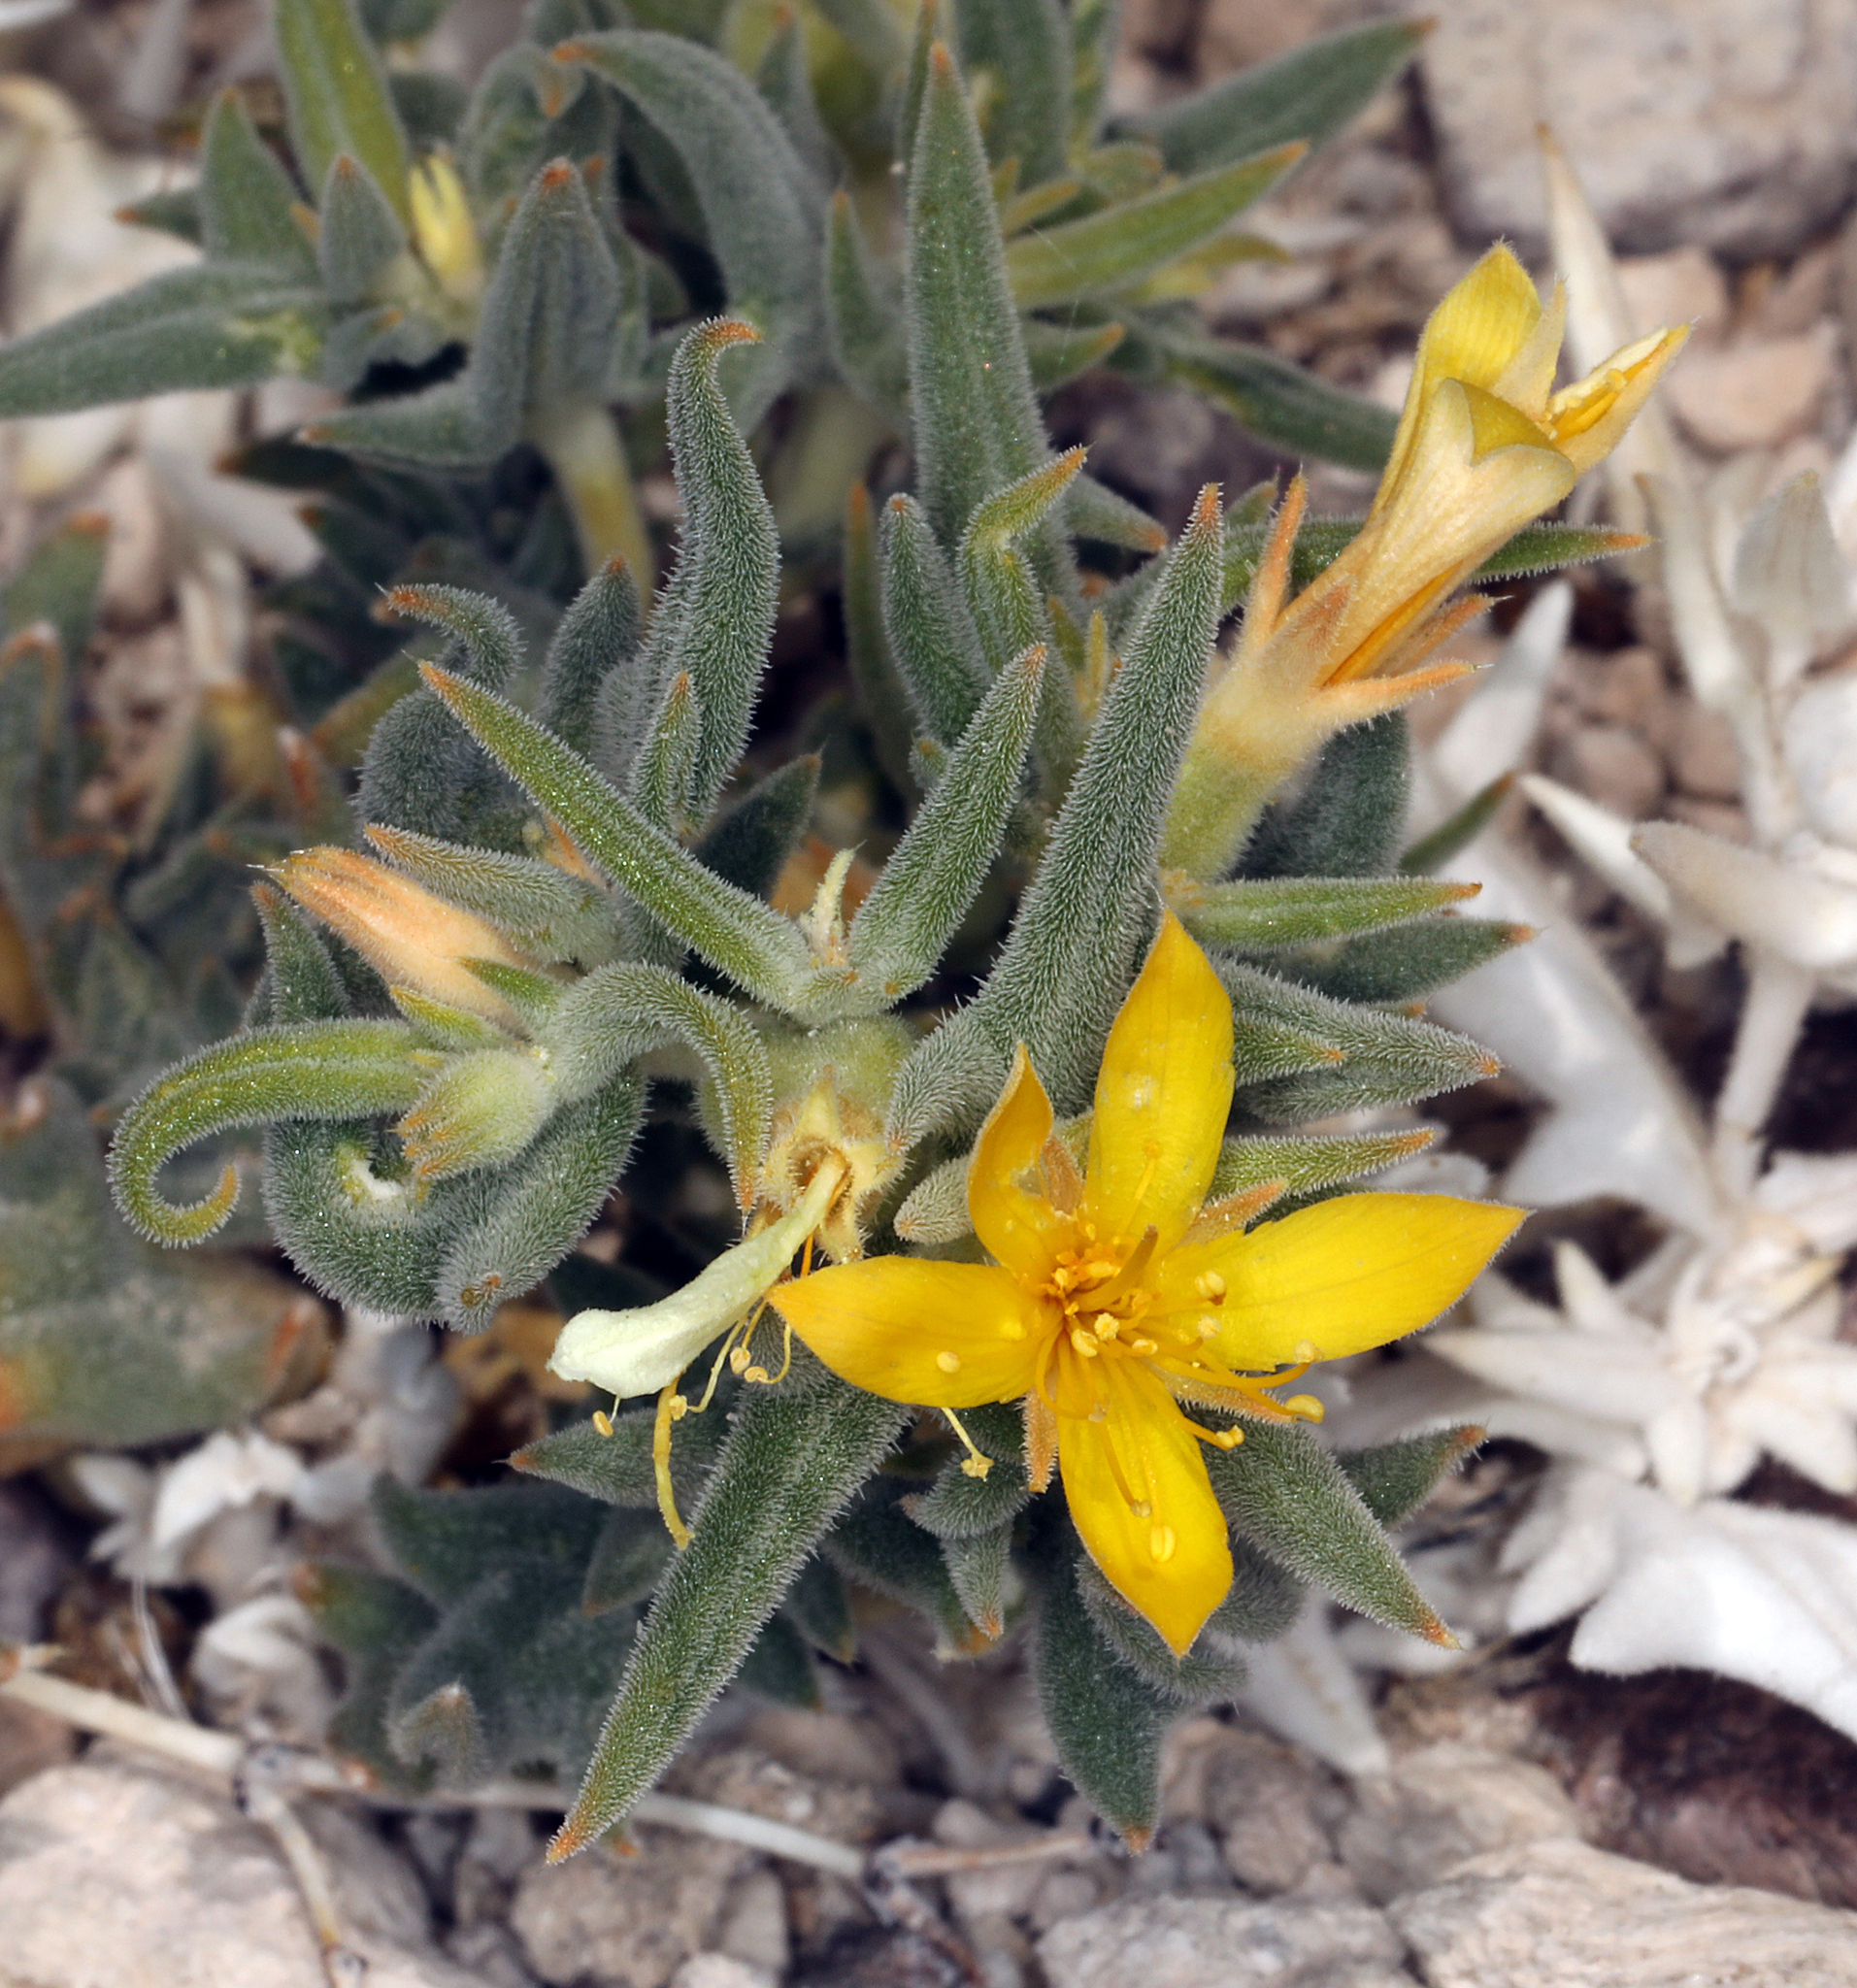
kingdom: Plantae
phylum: Tracheophyta
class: Magnoliopsida
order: Cornales
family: Loasaceae
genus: Mentzelia
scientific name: Mentzelia torreyi
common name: Torrey's blazingstar
